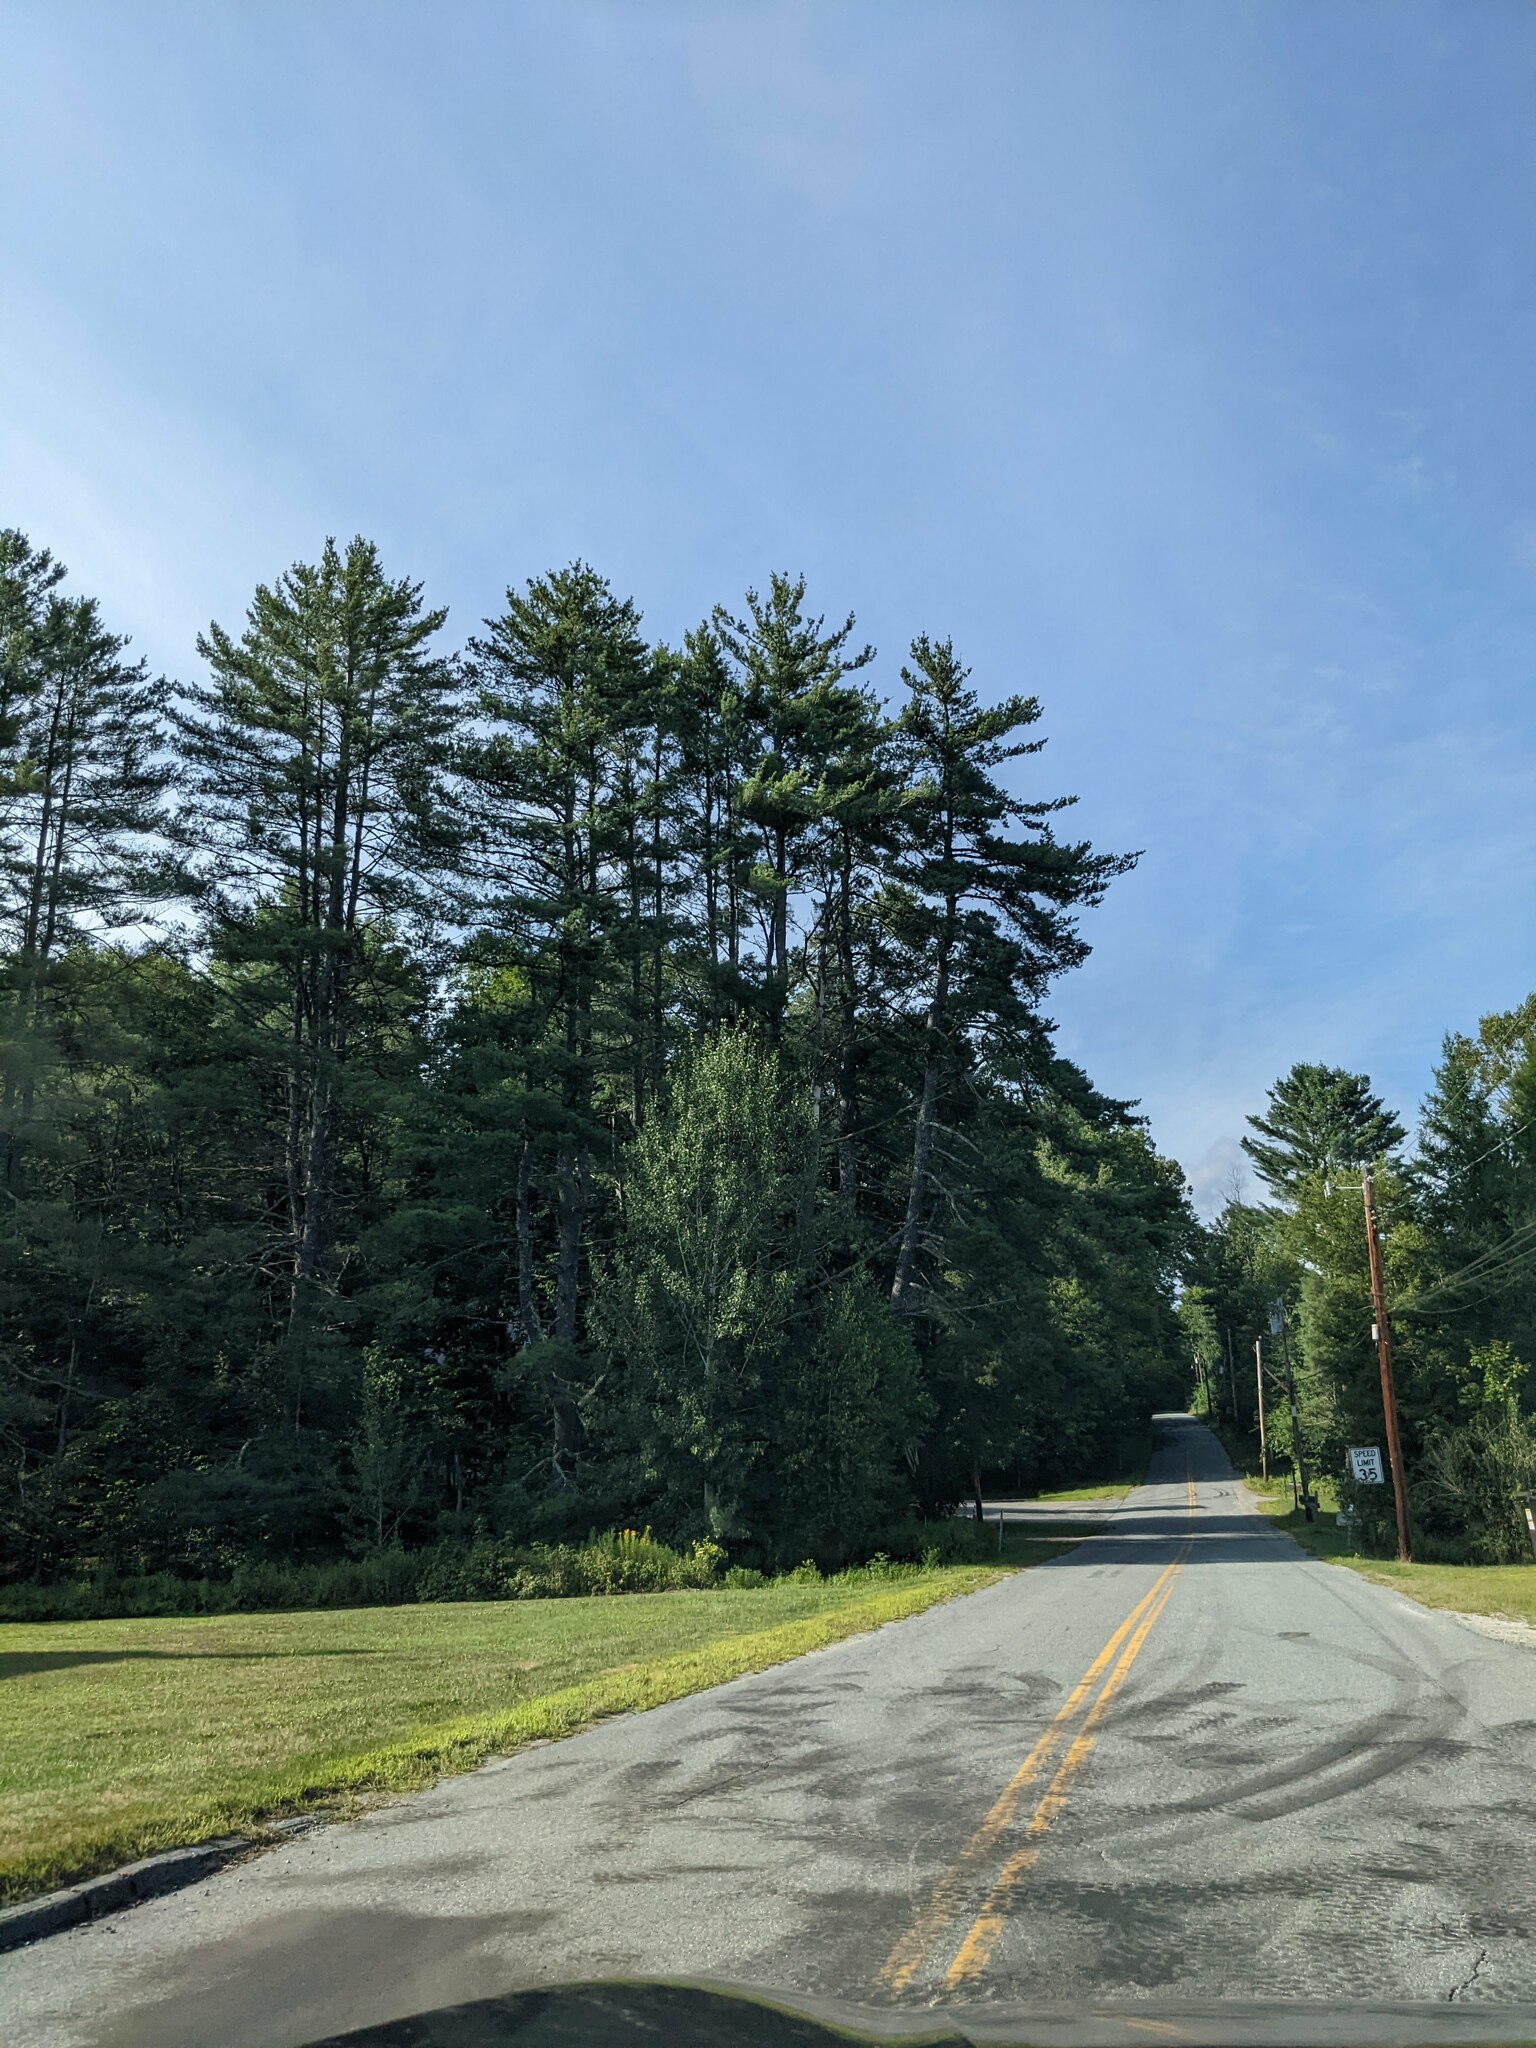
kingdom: Plantae
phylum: Tracheophyta
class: Pinopsida
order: Pinales
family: Pinaceae
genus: Pinus
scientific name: Pinus strobus
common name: Weymouth pine
